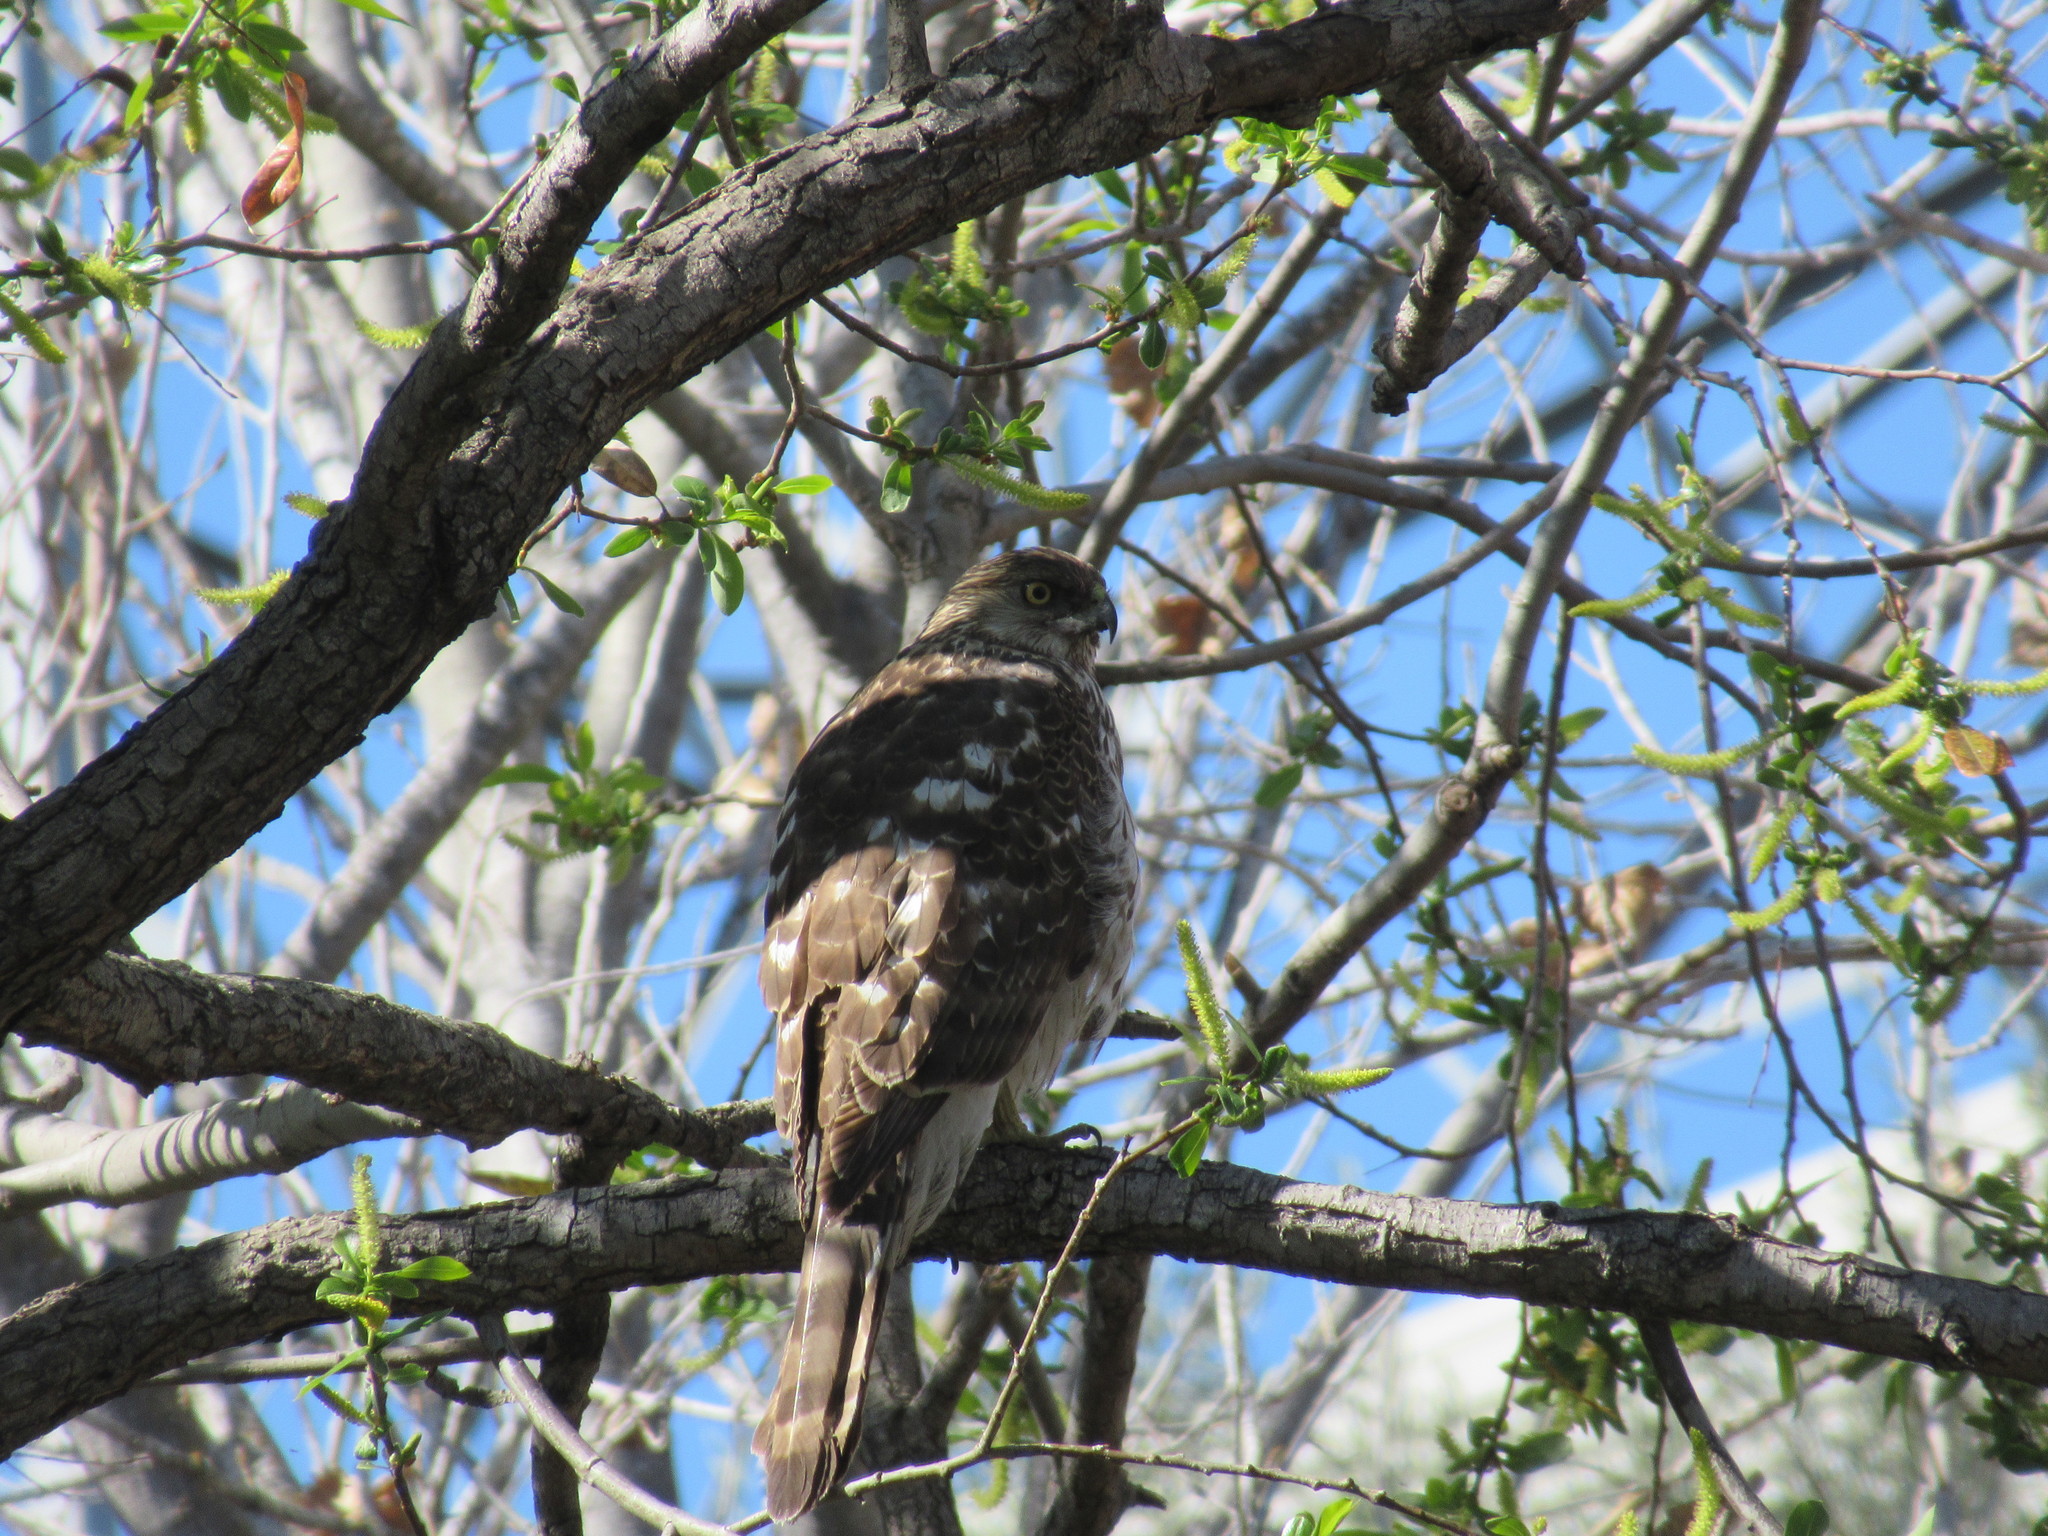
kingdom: Animalia
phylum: Chordata
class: Aves
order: Accipitriformes
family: Accipitridae
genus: Accipiter
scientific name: Accipiter cooperii
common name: Cooper's hawk
